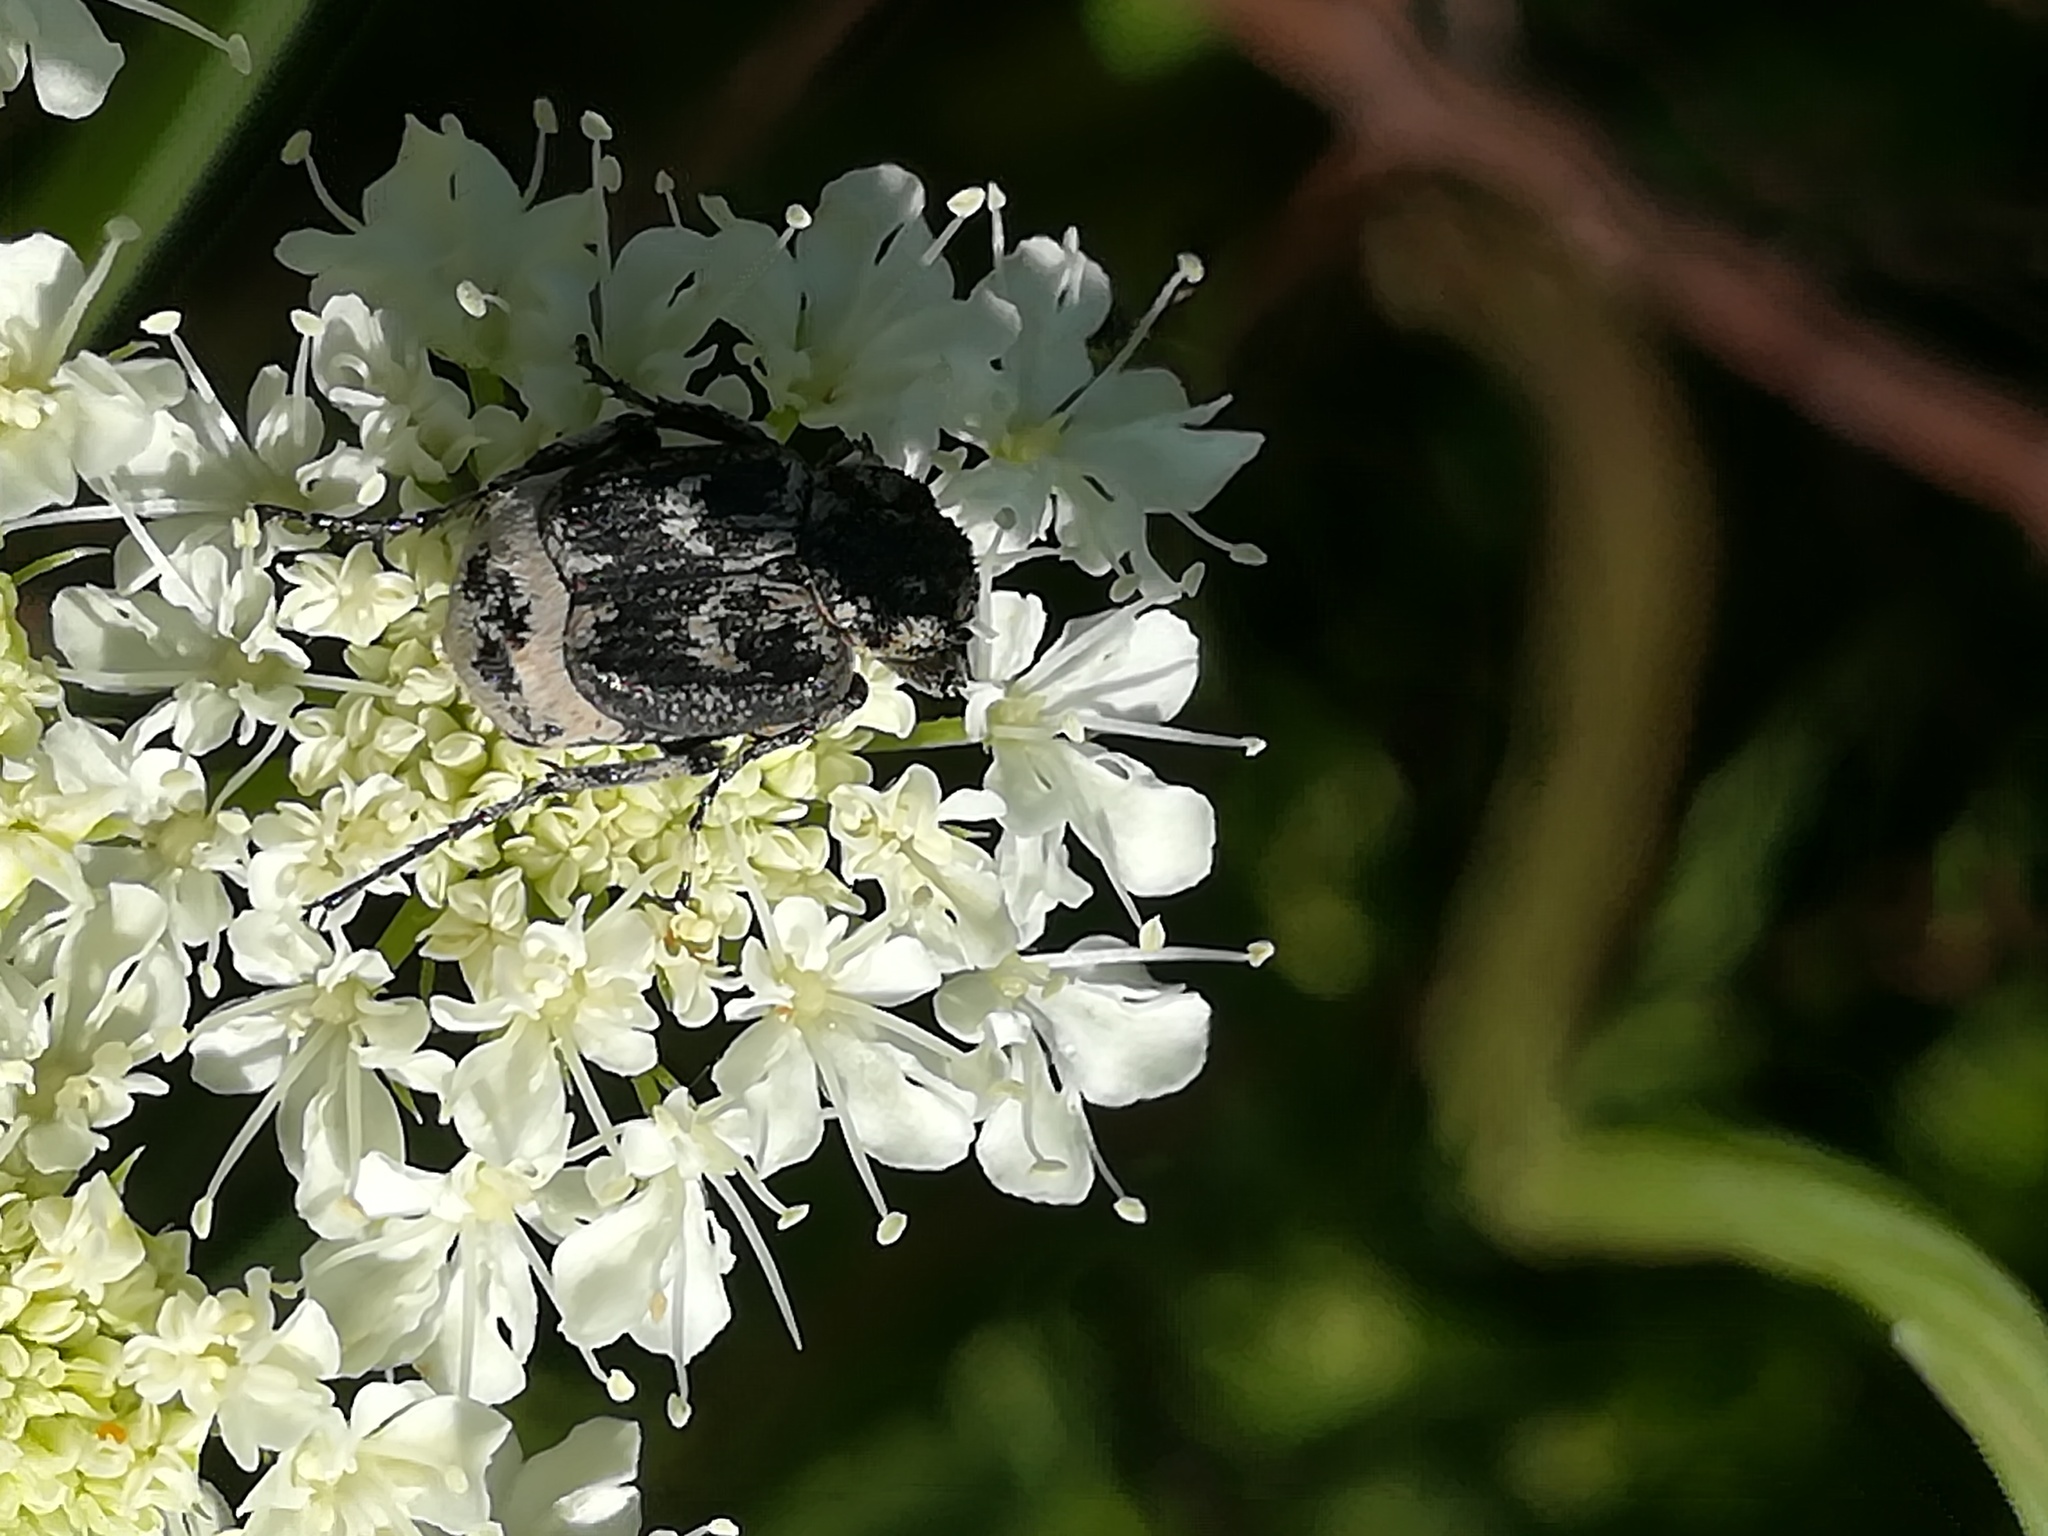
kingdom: Animalia
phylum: Arthropoda
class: Insecta
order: Coleoptera
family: Scarabaeidae
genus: Valgus
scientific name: Valgus hemipterus
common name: Bug flower chafer
